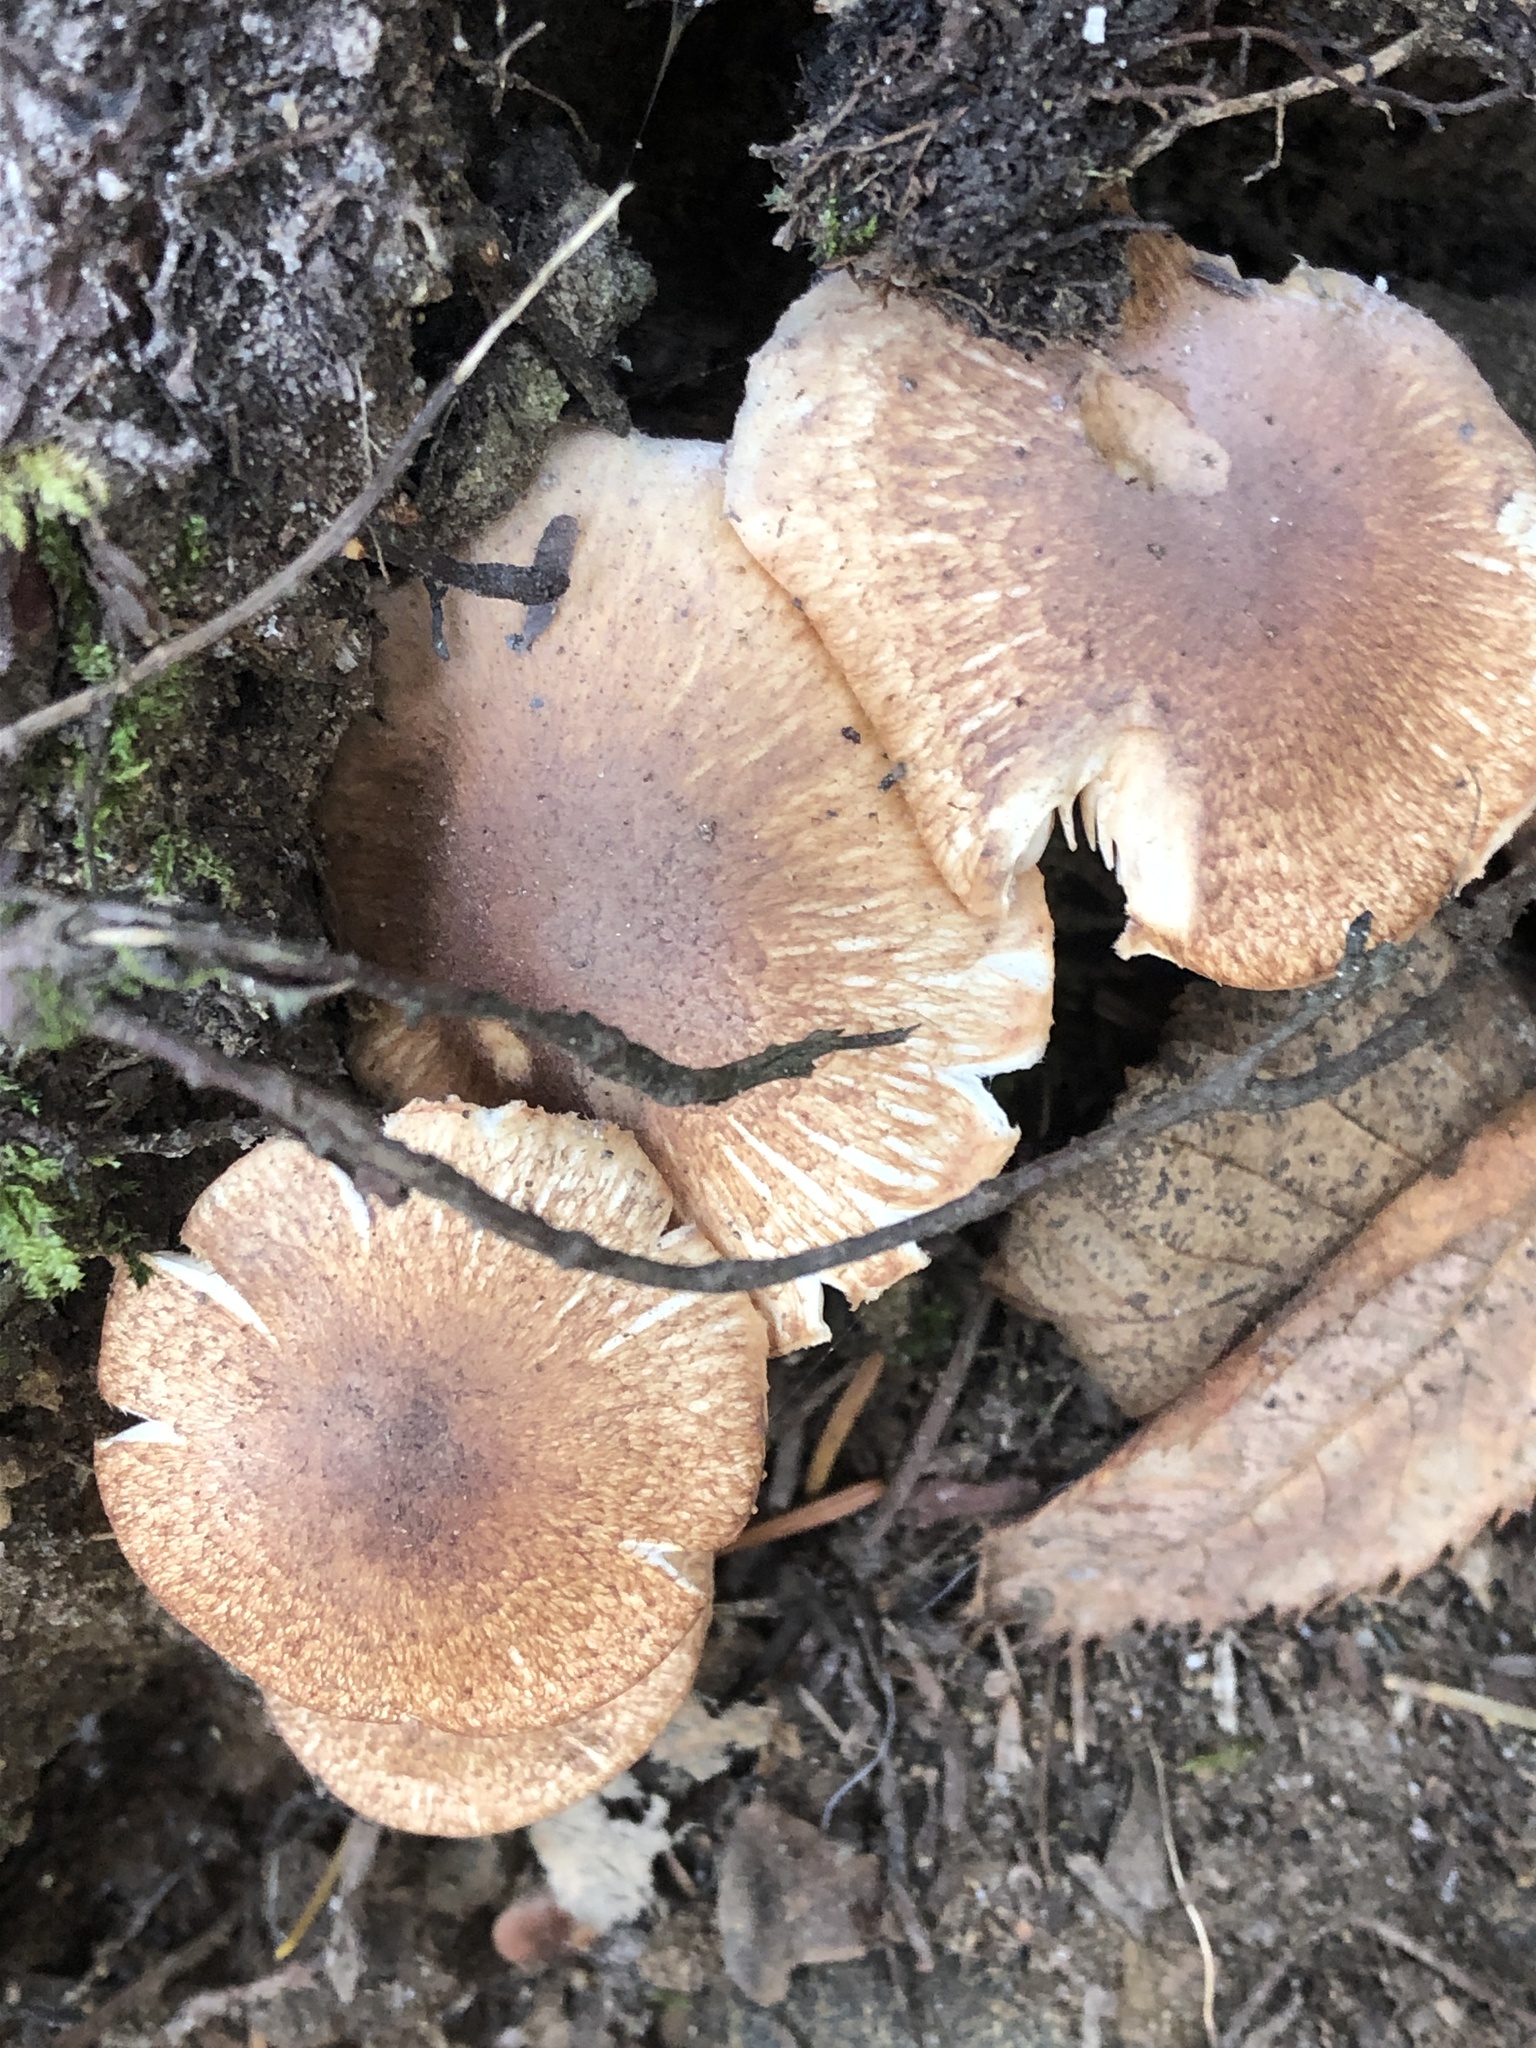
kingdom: Fungi
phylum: Basidiomycota
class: Agaricomycetes
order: Agaricales
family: Tricholomataceae
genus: Tricholoma
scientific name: Tricholoma vaccinum
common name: Scaly knight
